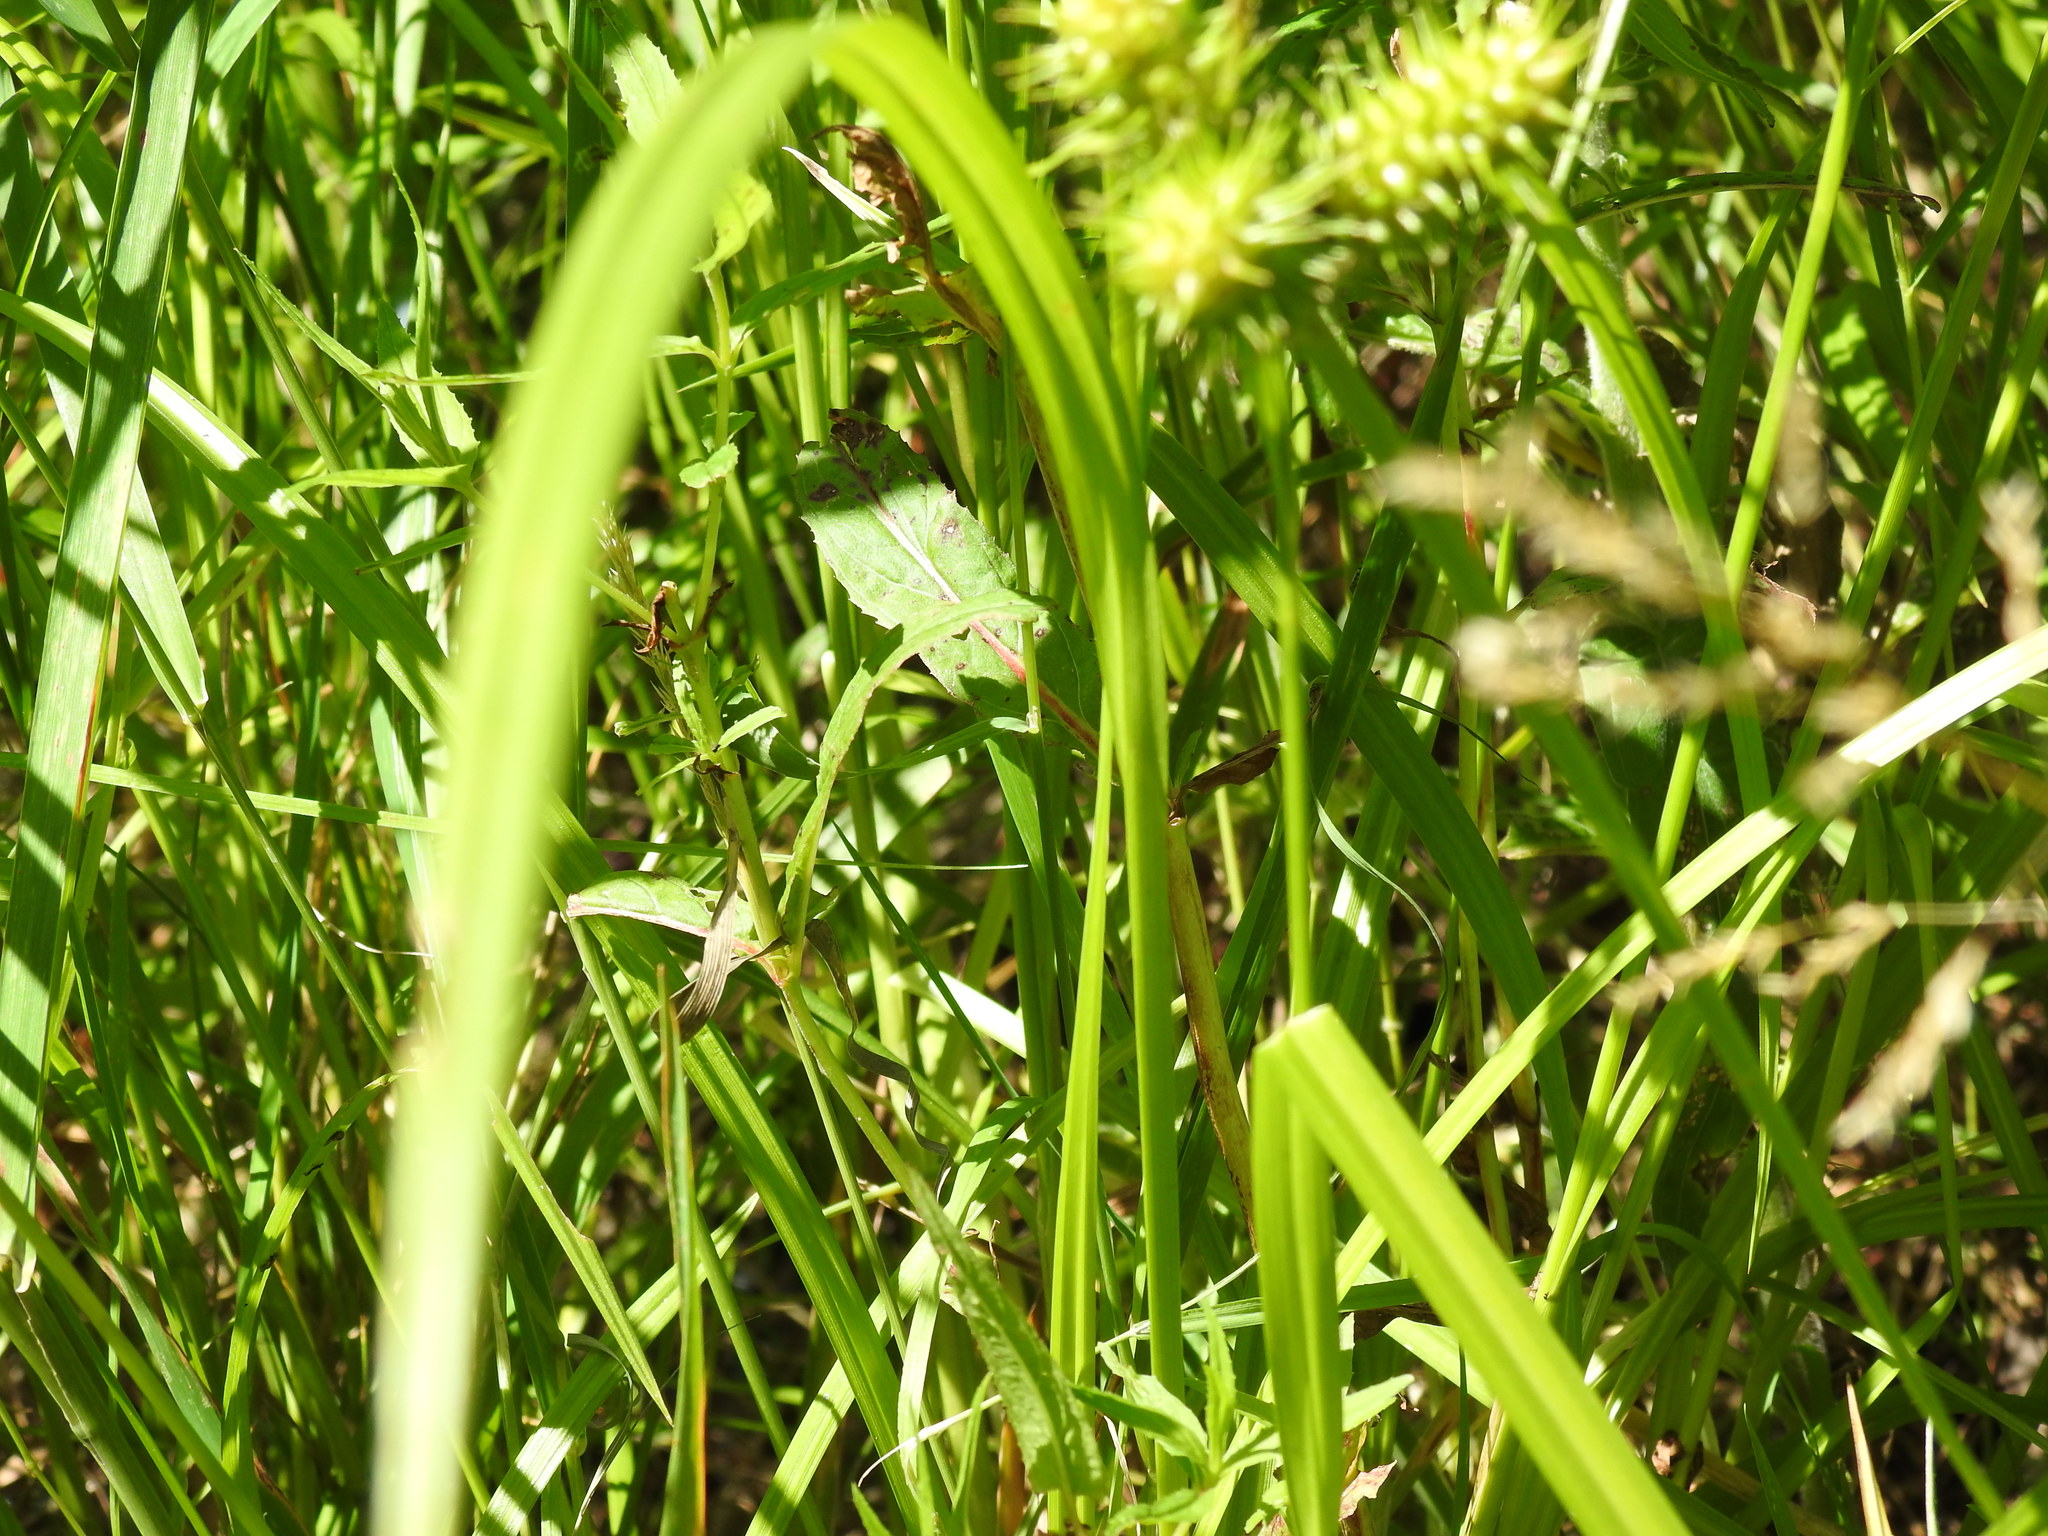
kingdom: Plantae
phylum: Tracheophyta
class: Liliopsida
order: Poales
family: Cyperaceae
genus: Carex
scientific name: Carex lurida
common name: Sallow sedge
